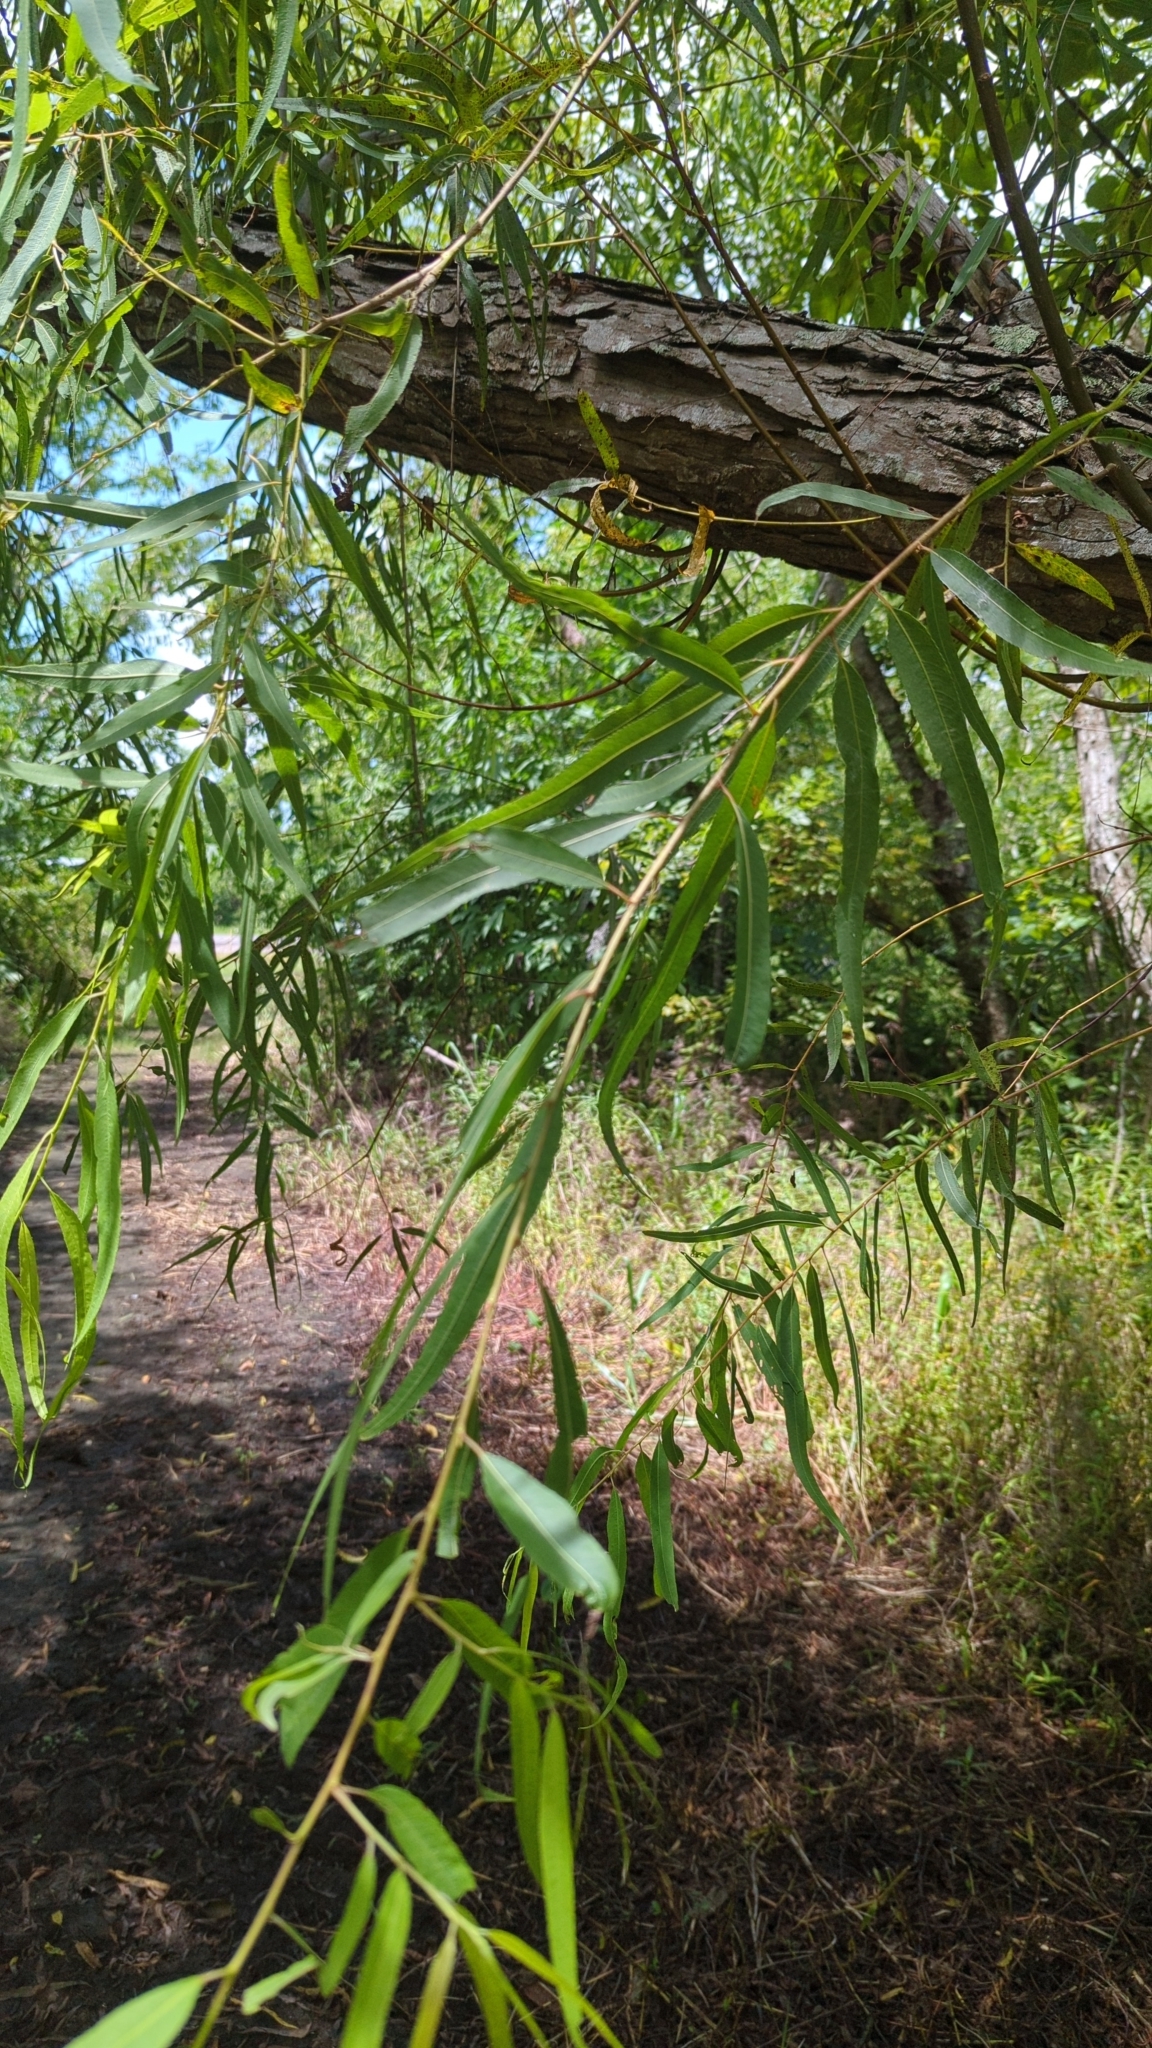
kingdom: Plantae
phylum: Tracheophyta
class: Magnoliopsida
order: Malpighiales
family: Salicaceae
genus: Salix
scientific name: Salix nigra
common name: Black willow
